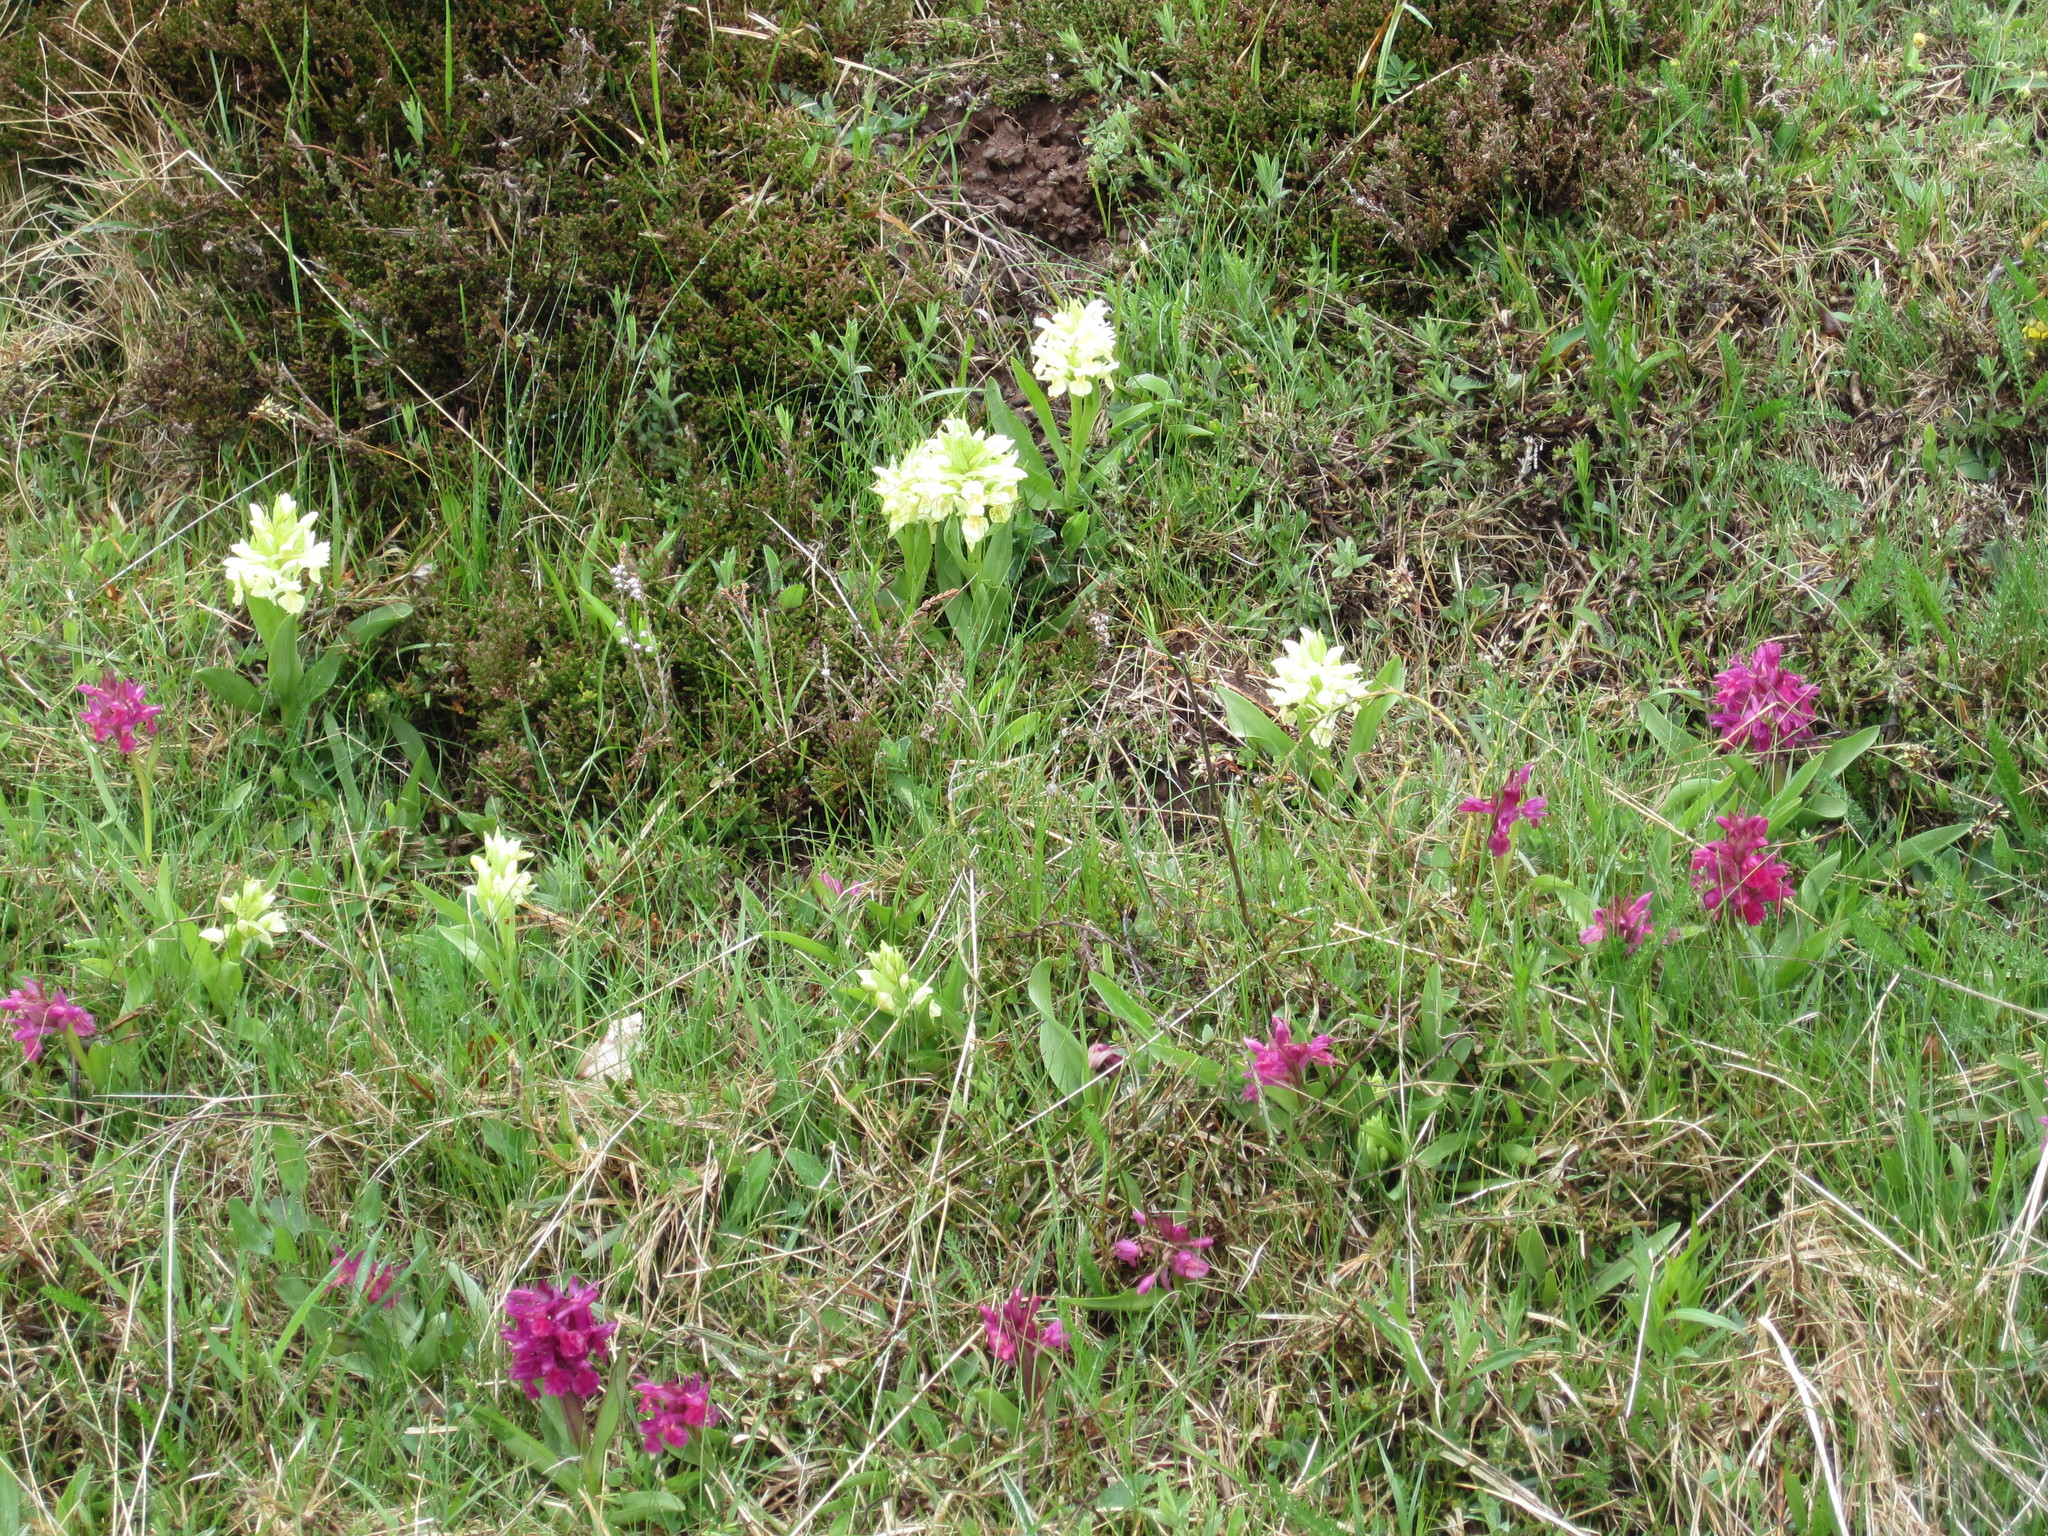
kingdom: Plantae
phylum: Tracheophyta
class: Liliopsida
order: Asparagales
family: Orchidaceae
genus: Dactylorhiza
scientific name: Dactylorhiza sambucina
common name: Elder-flowered orchid
